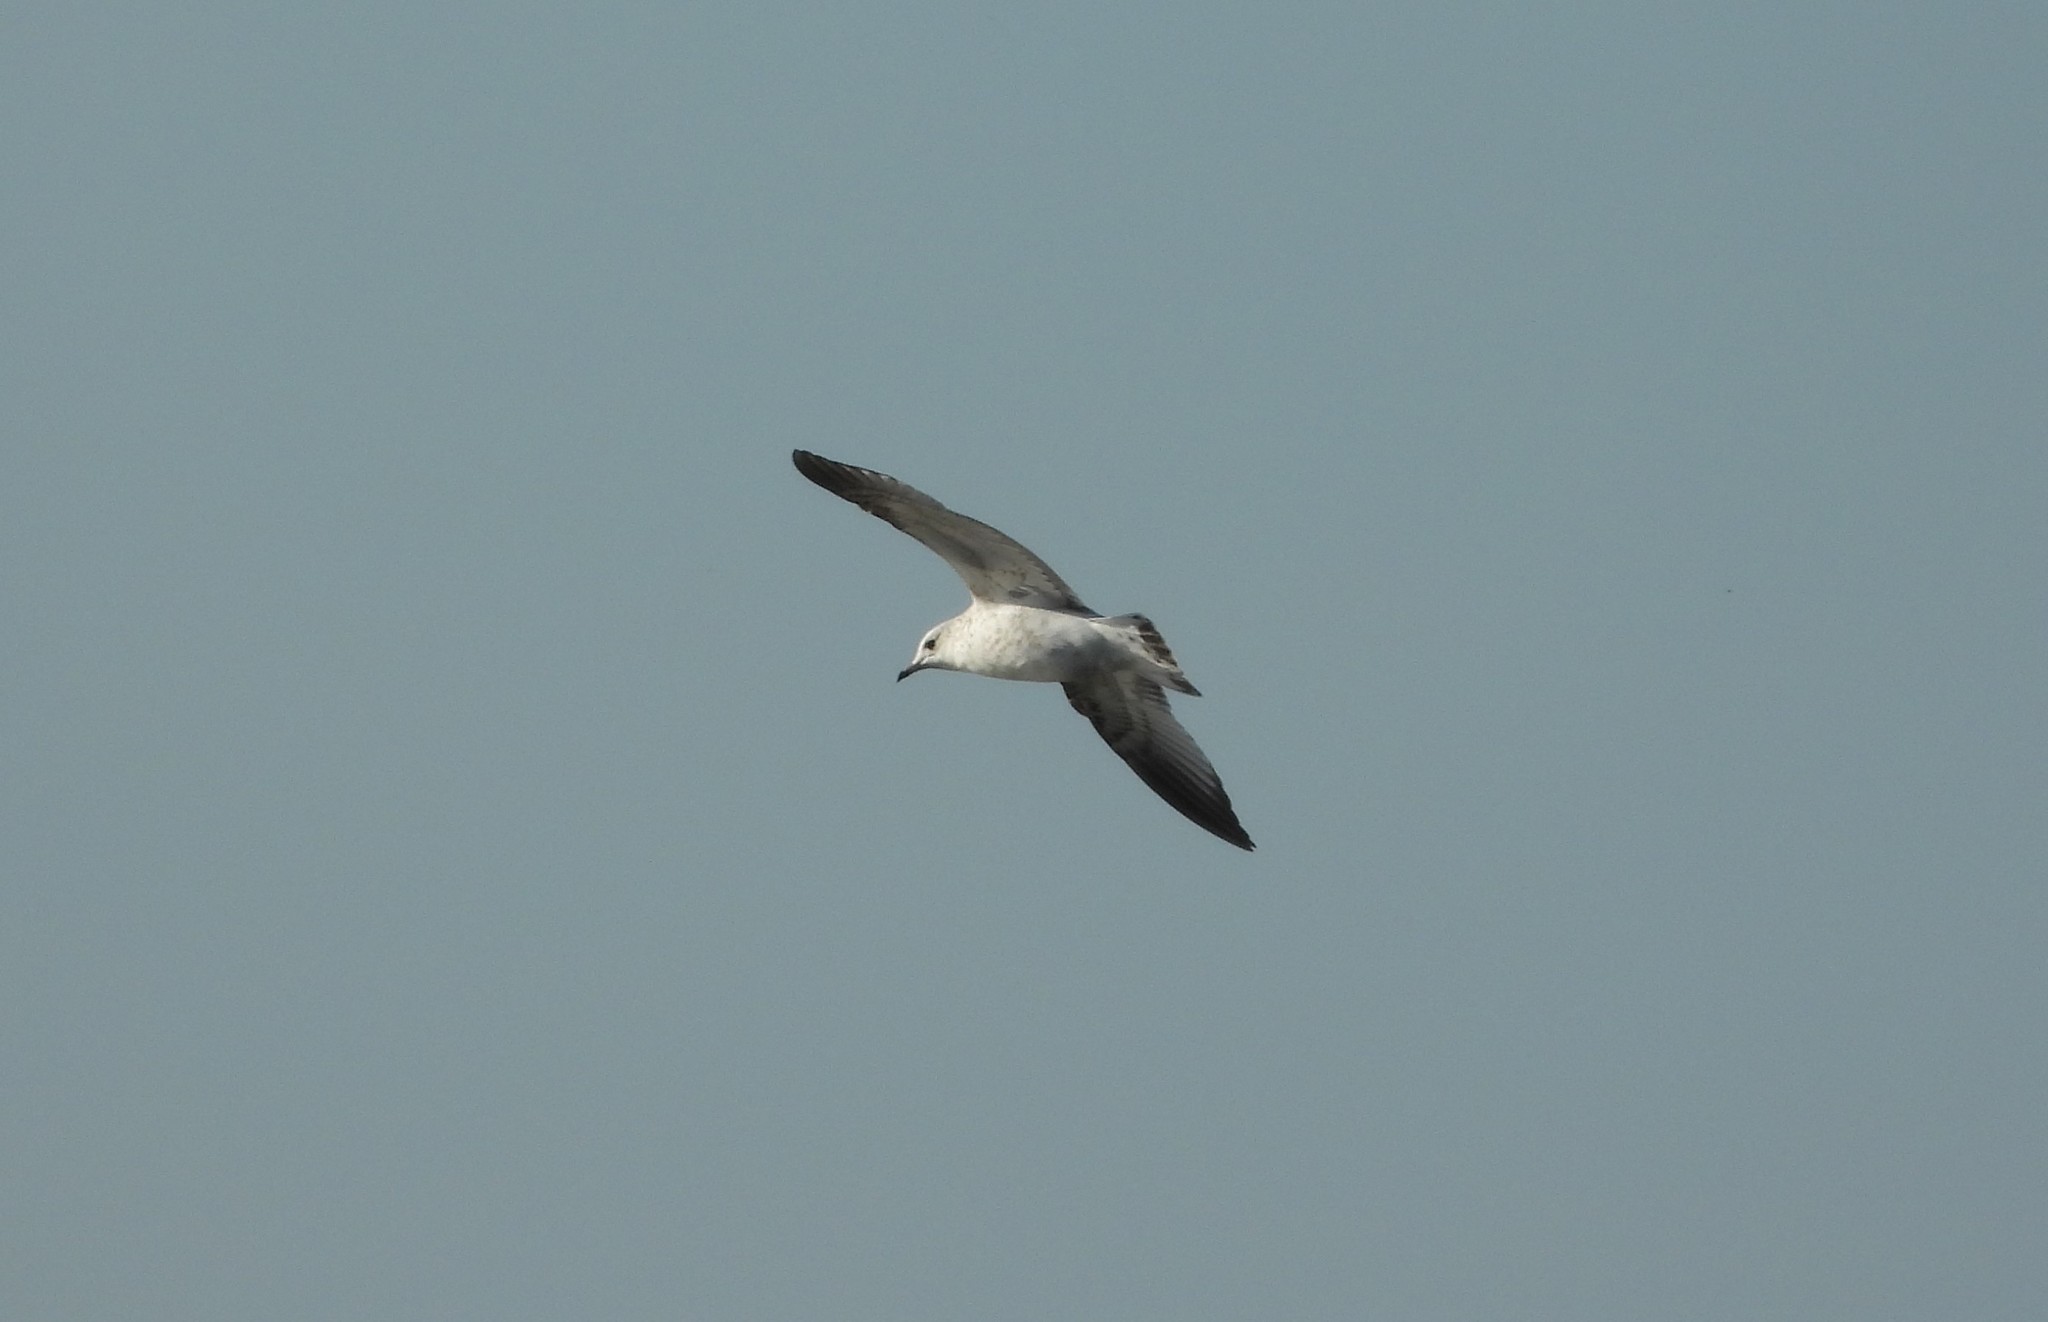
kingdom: Animalia
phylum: Chordata
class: Aves
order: Charadriiformes
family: Laridae
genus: Larus
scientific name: Larus canus
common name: Mew gull
